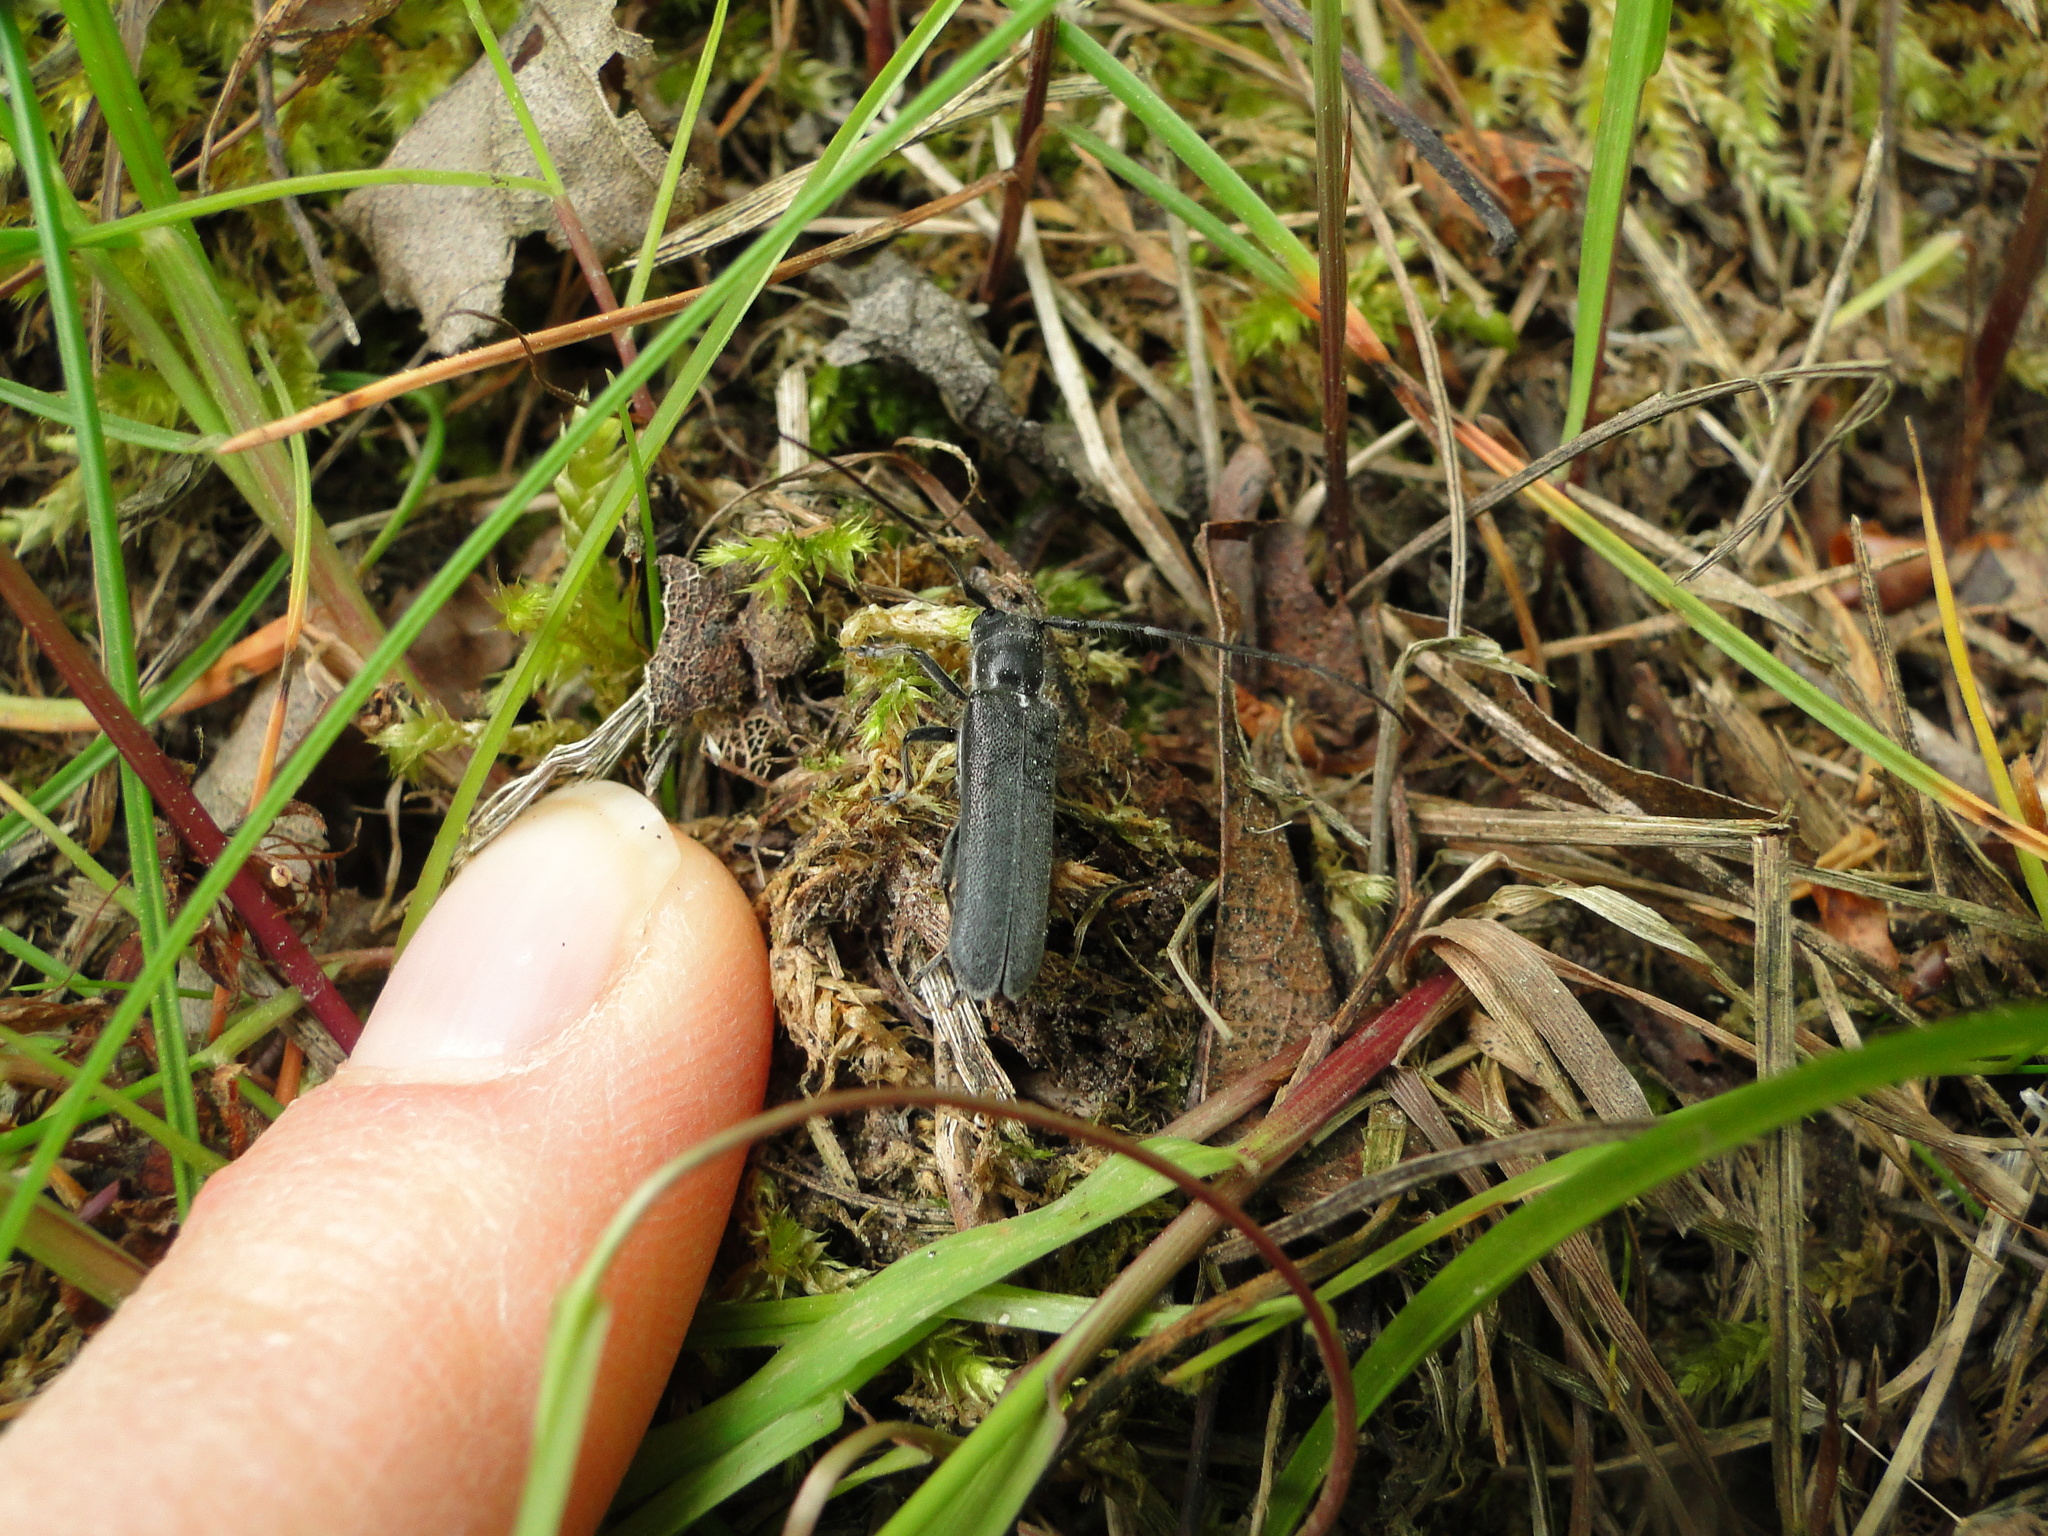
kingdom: Animalia
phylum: Arthropoda
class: Insecta
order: Coleoptera
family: Cerambycidae
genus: Stenostola
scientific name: Stenostola ferrea
